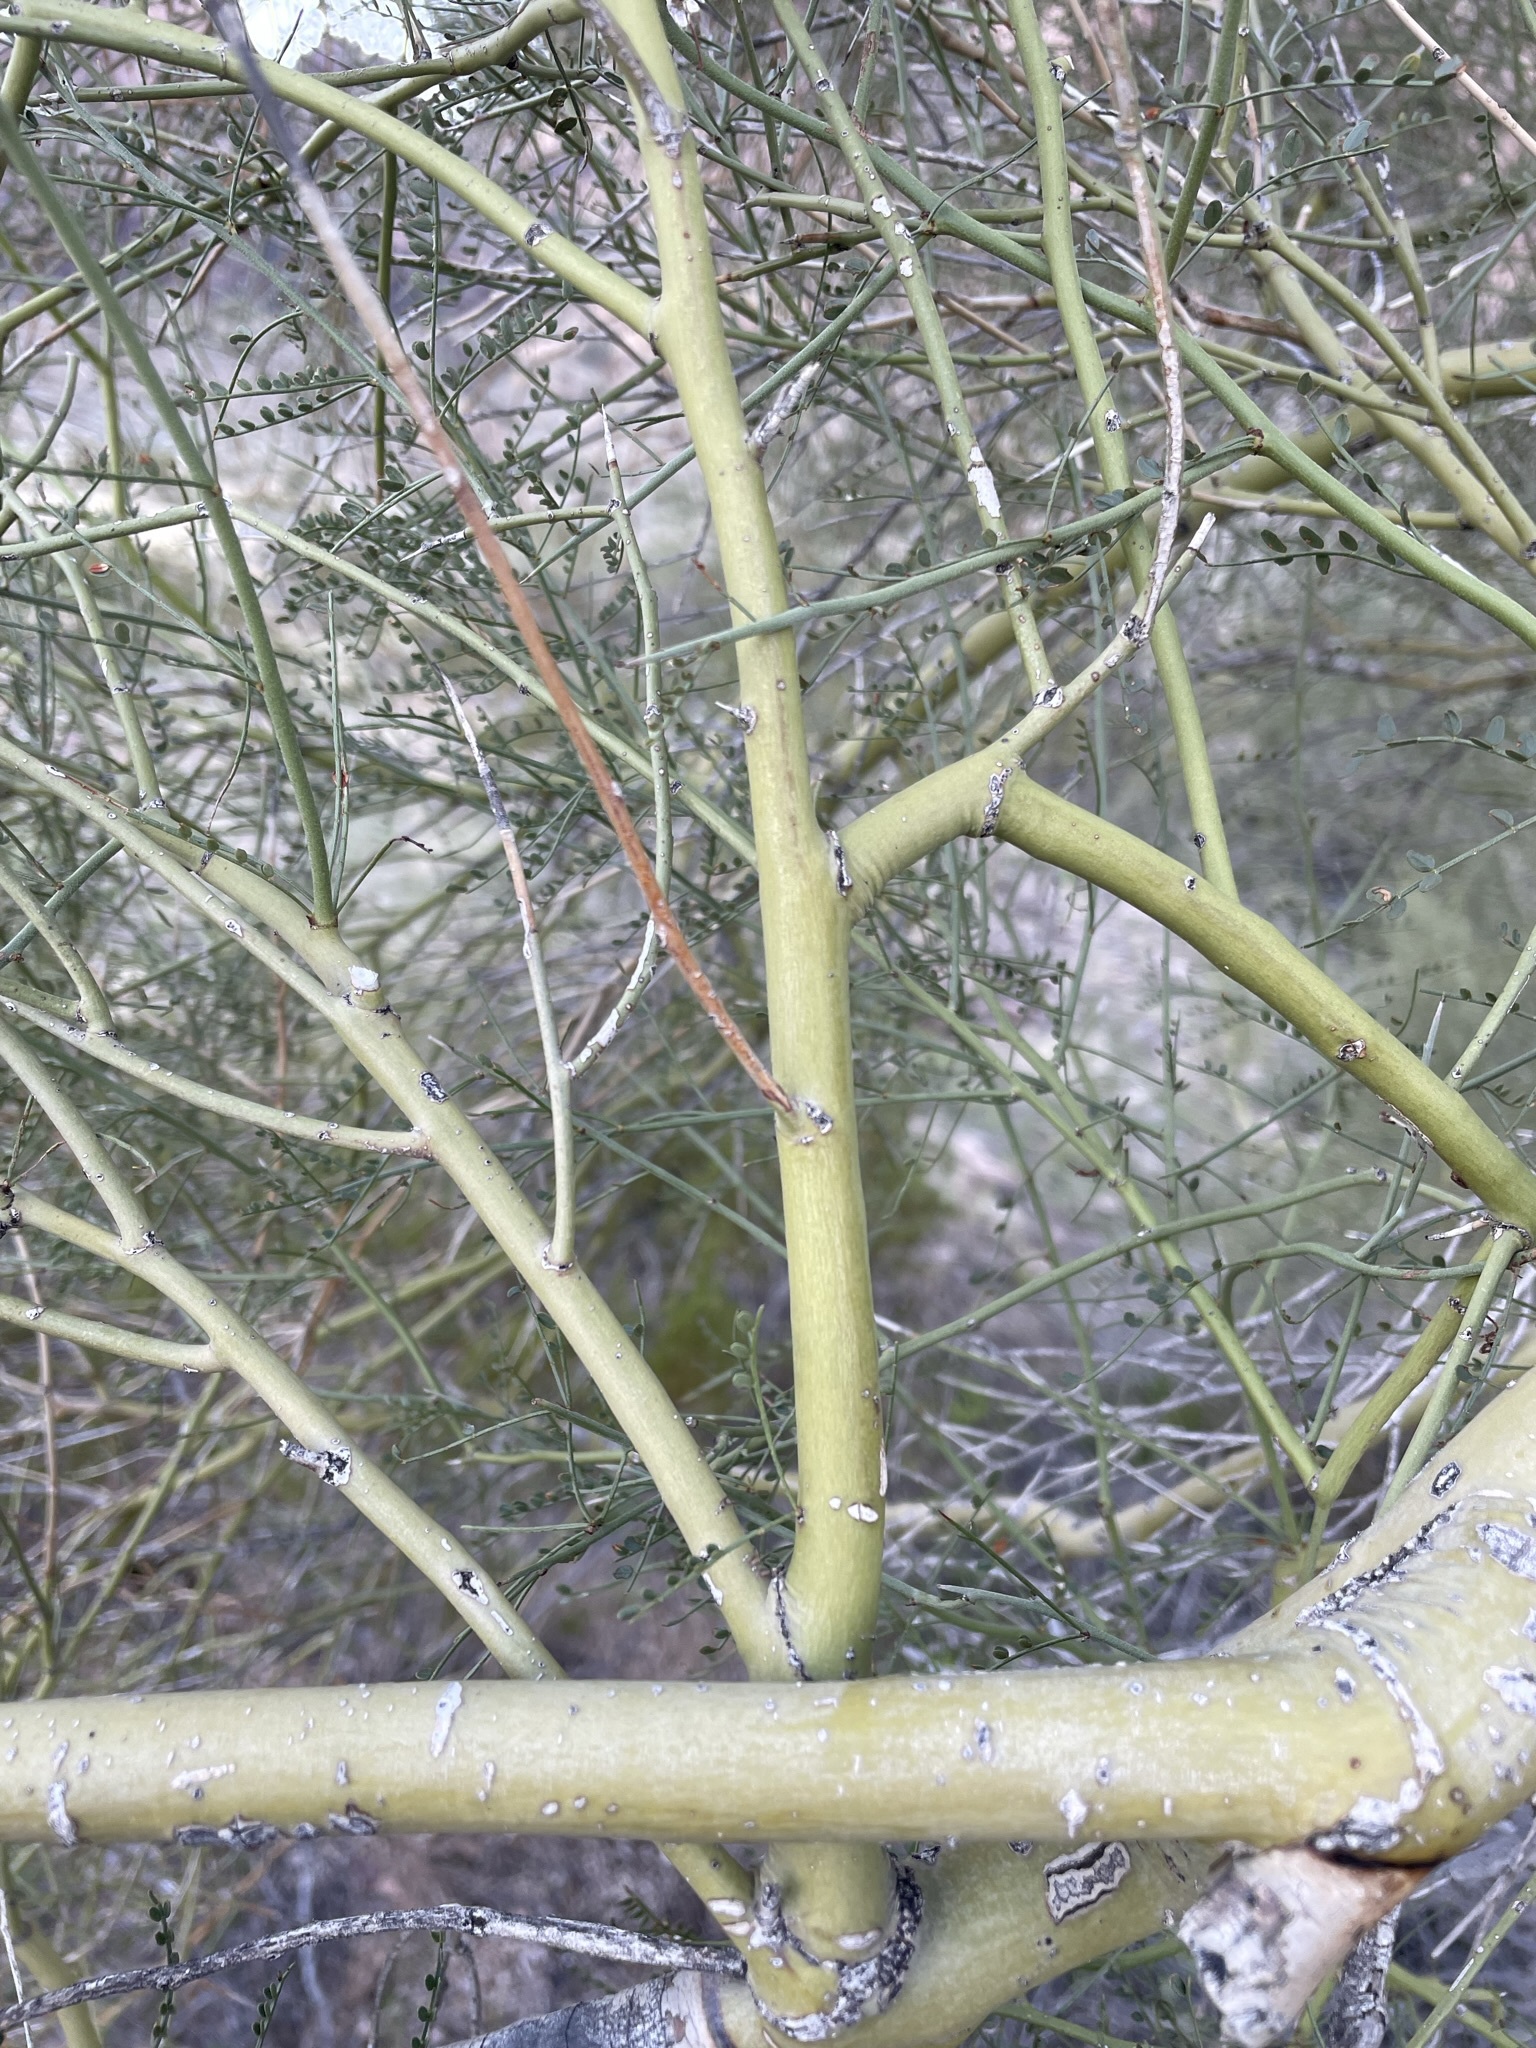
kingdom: Plantae
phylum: Tracheophyta
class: Magnoliopsida
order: Fabales
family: Fabaceae
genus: Parkinsonia
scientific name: Parkinsonia microphylla
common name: Yellow paloverde
